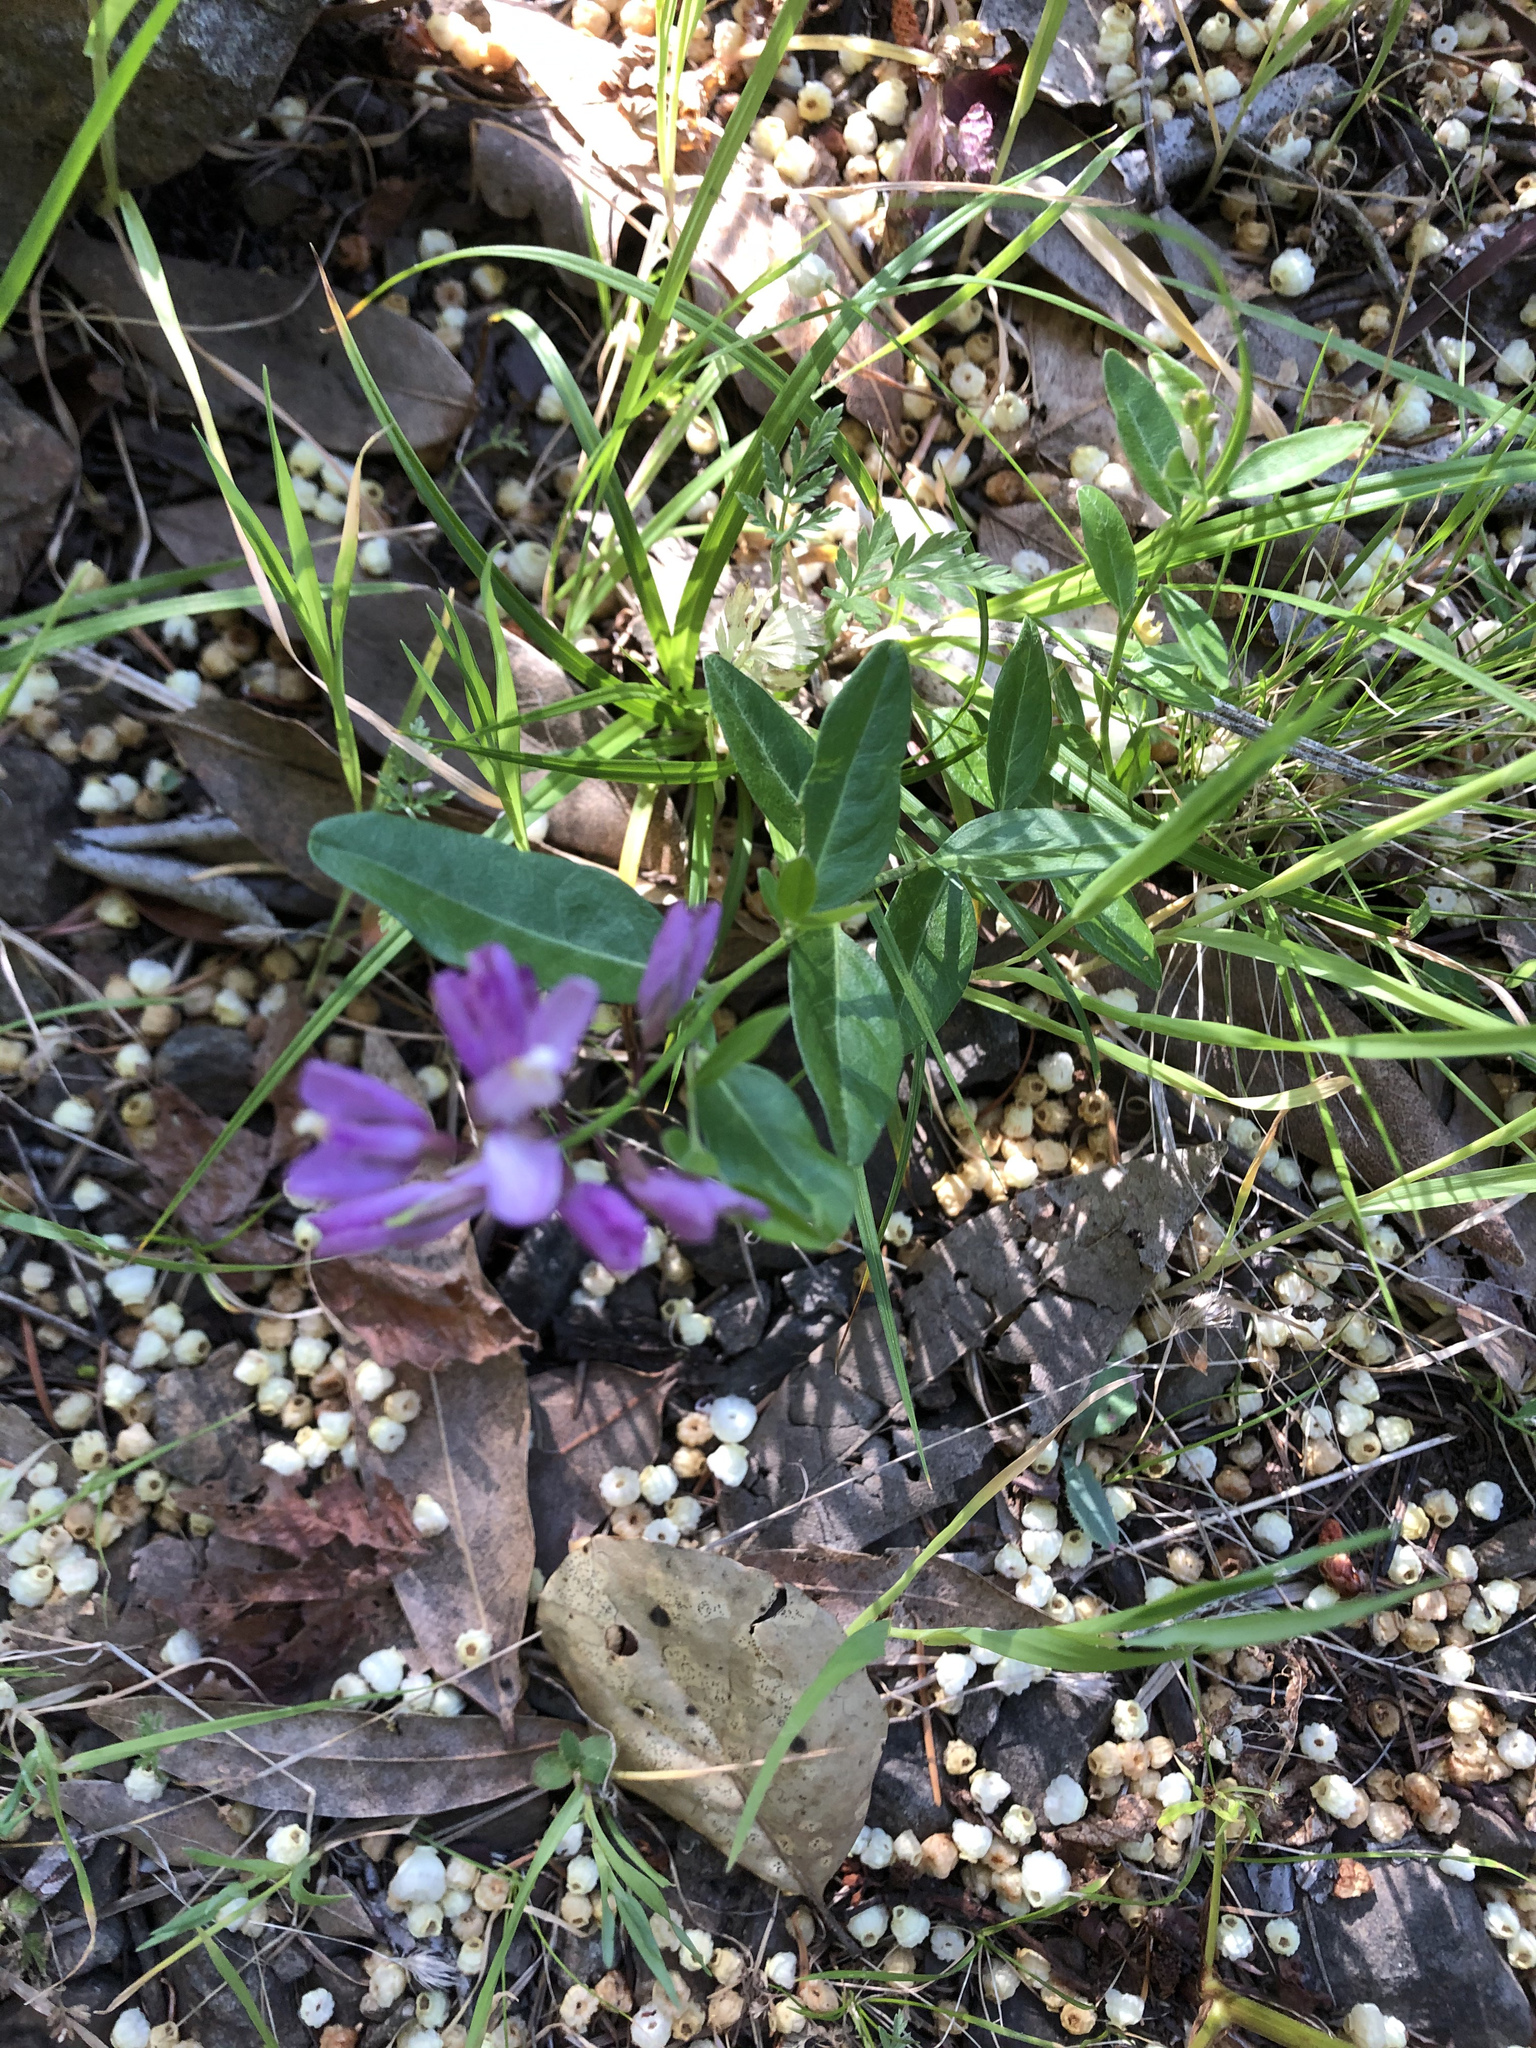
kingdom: Plantae
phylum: Tracheophyta
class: Magnoliopsida
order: Fabales
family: Polygalaceae
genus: Rhinotropis
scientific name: Rhinotropis californica
